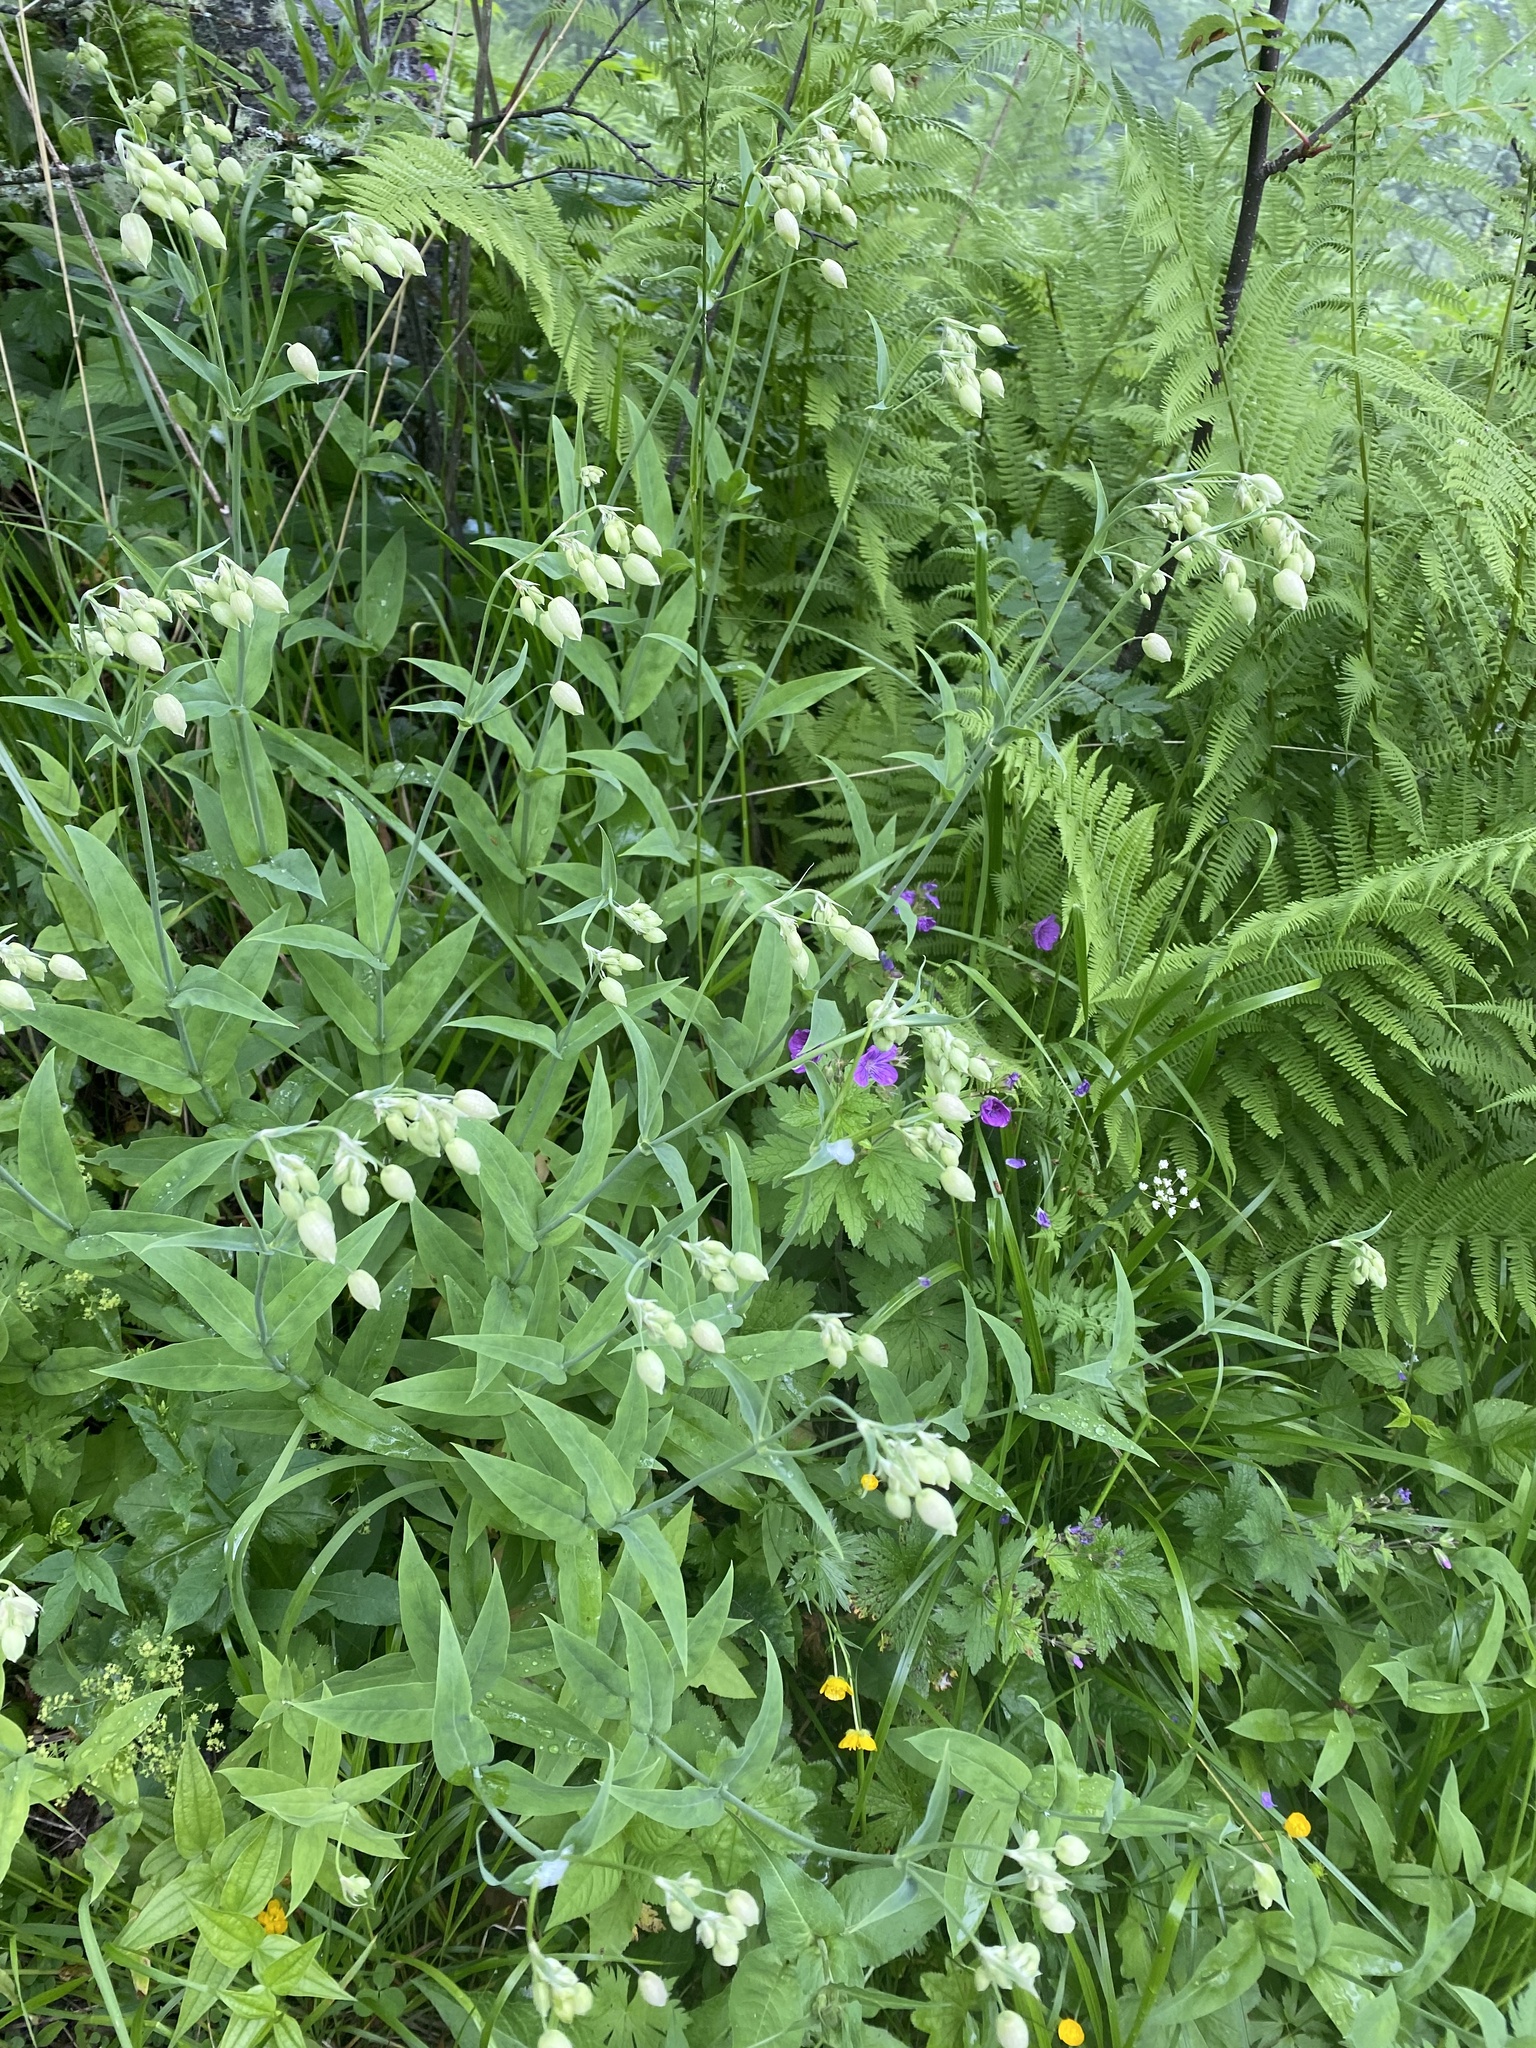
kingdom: Plantae
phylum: Tracheophyta
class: Magnoliopsida
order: Caryophyllales
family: Caryophyllaceae
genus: Silene
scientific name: Silene vulgaris
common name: Bladder campion
